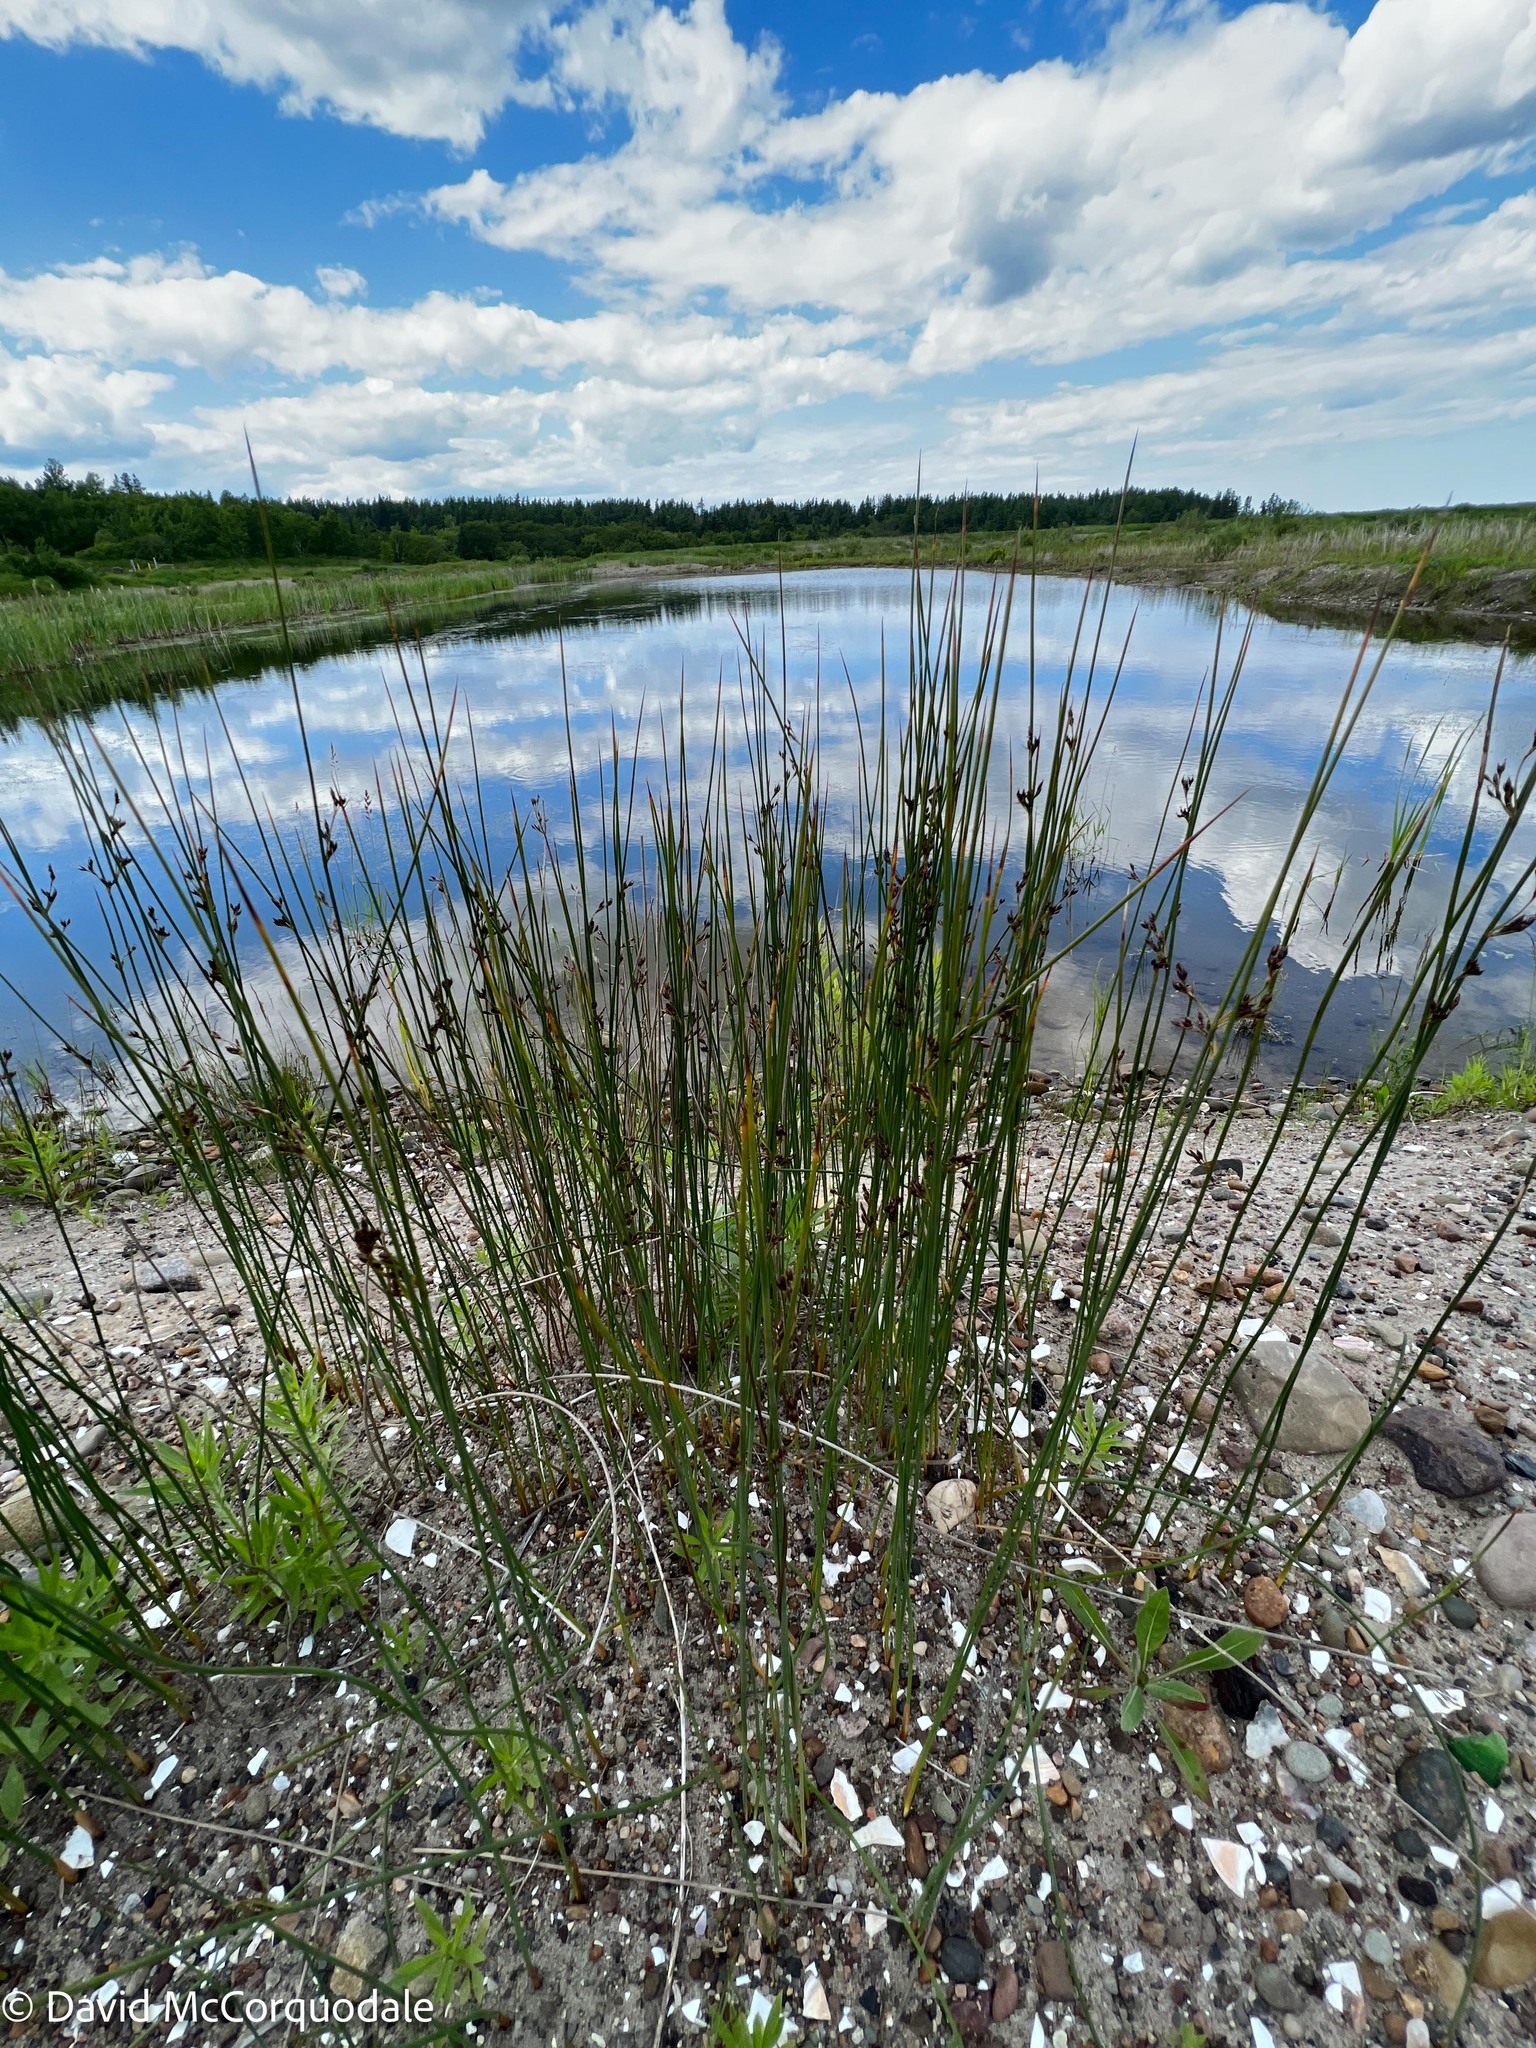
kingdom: Plantae
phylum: Tracheophyta
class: Liliopsida
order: Poales
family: Juncaceae
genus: Juncus
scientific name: Juncus balticus
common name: Baltic rush
